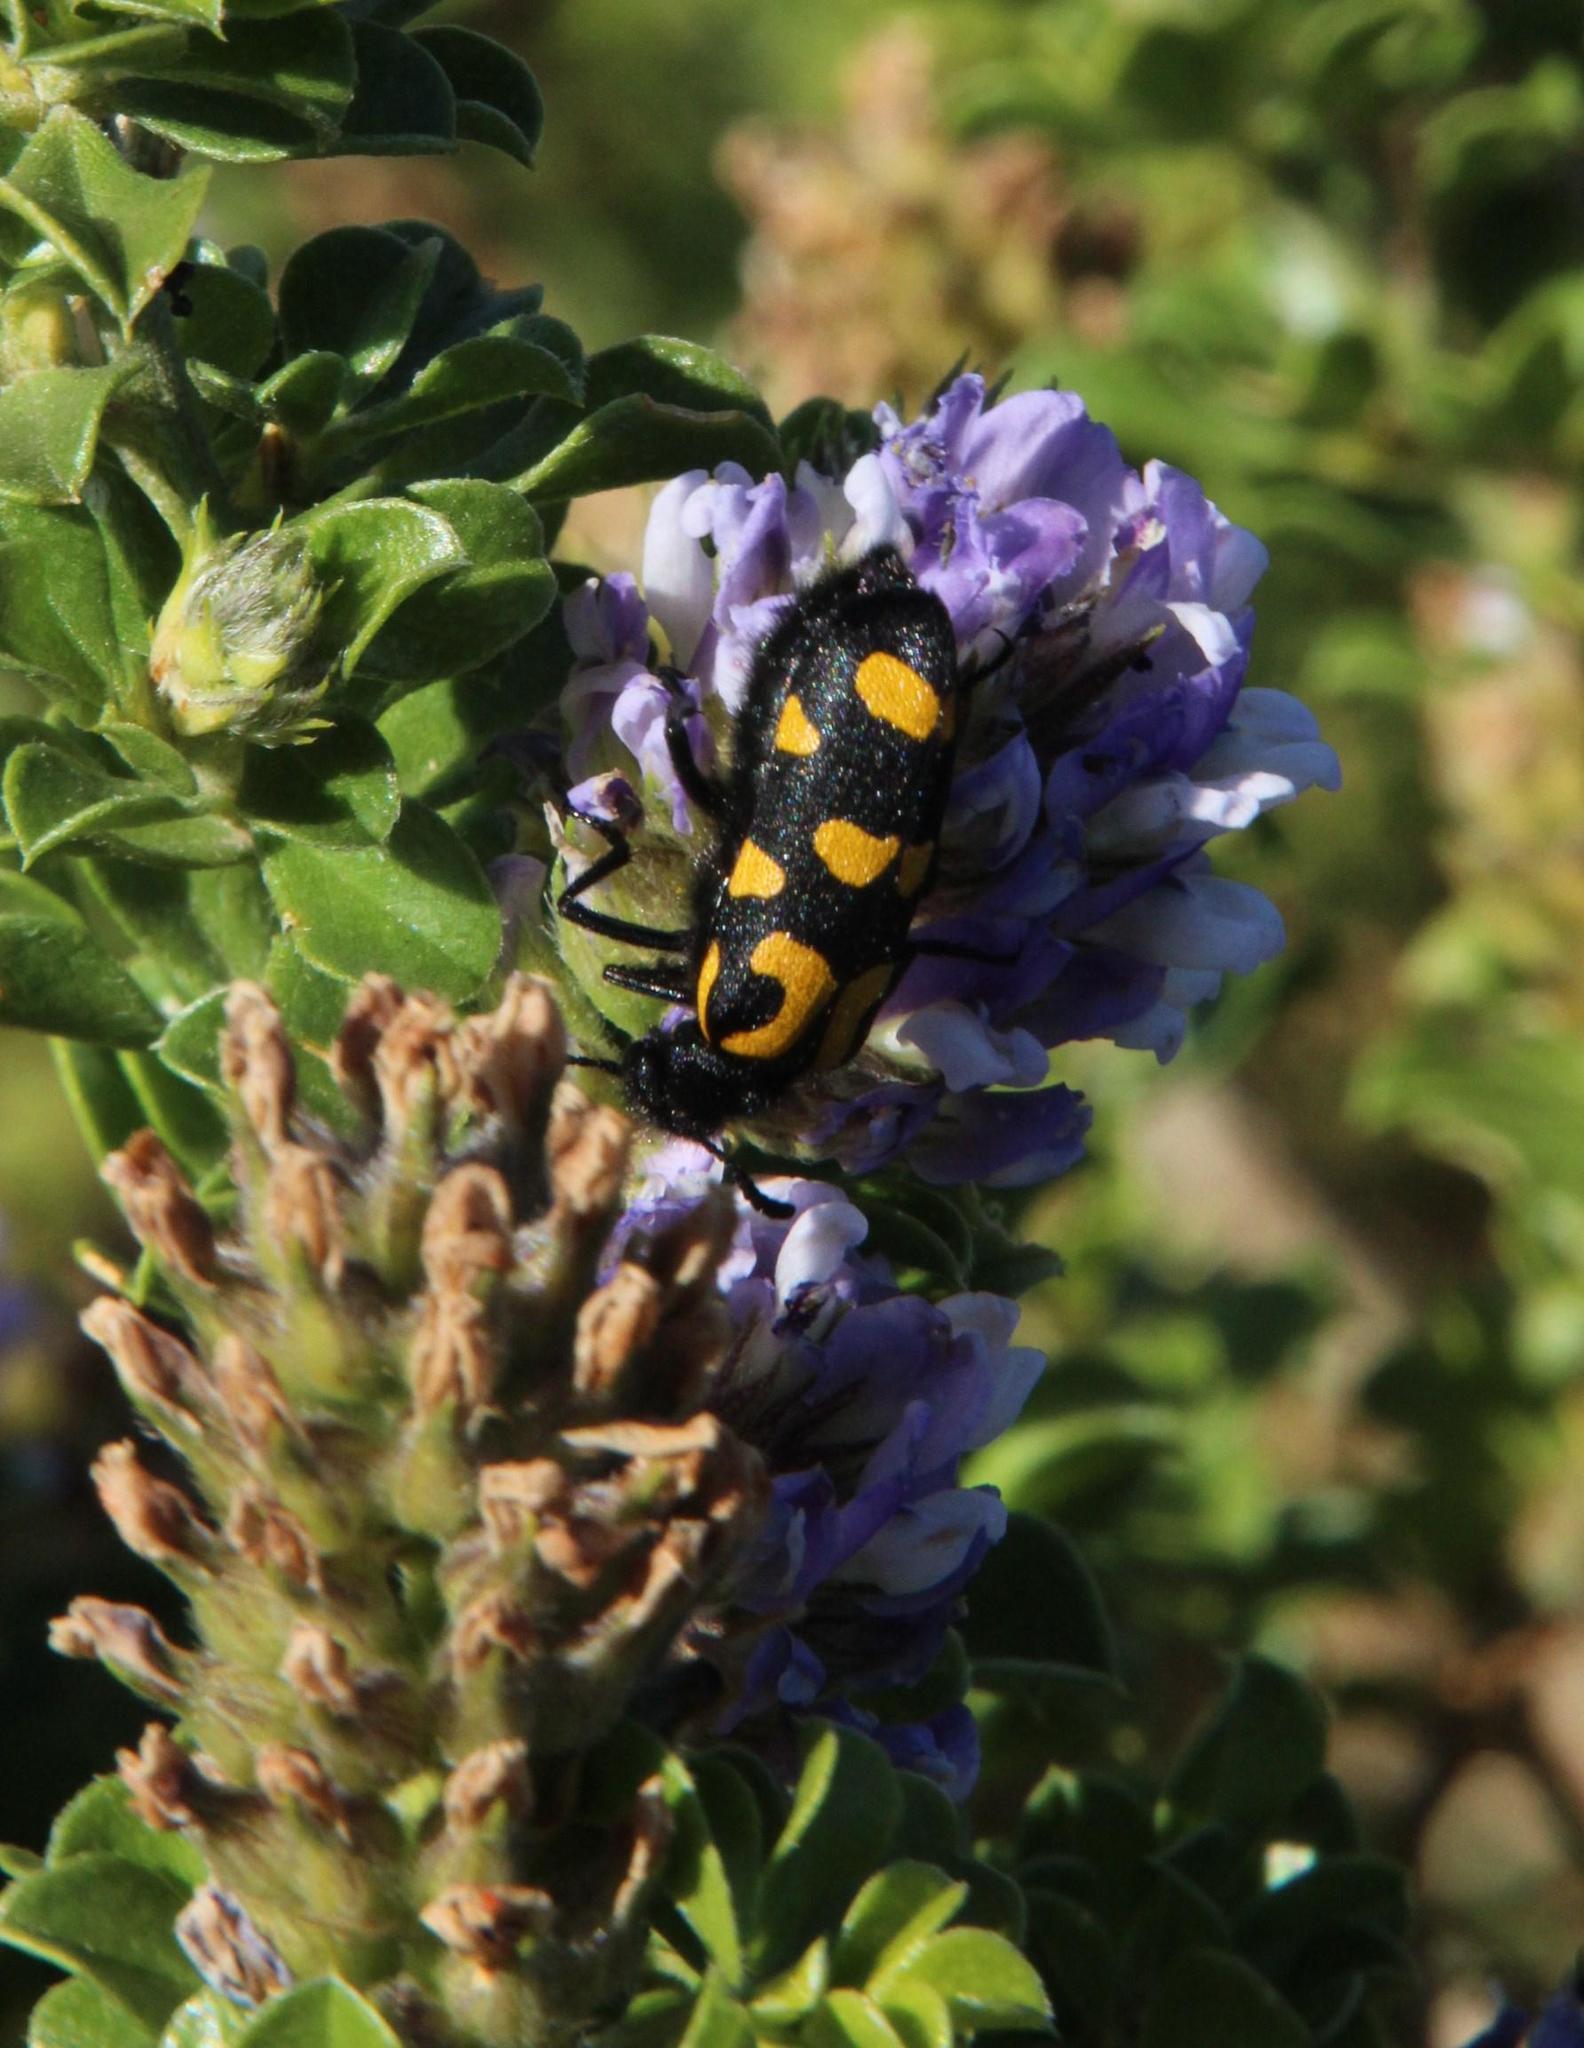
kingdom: Plantae
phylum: Tracheophyta
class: Magnoliopsida
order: Fabales
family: Fabaceae
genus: Psoralea
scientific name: Psoralea bracteolata
